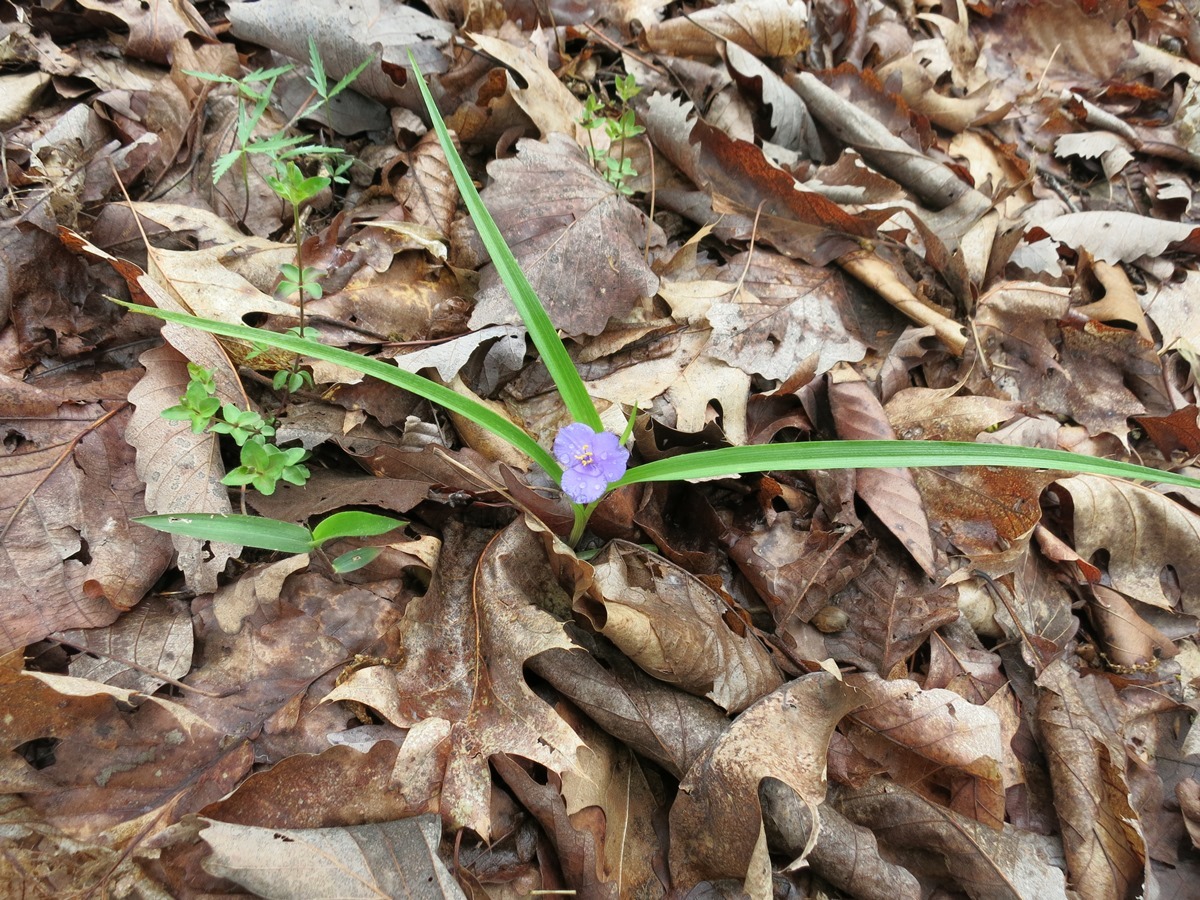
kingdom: Plantae
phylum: Tracheophyta
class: Liliopsida
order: Commelinales
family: Commelinaceae
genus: Tradescantia
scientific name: Tradescantia virginiana
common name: Spiderwort
